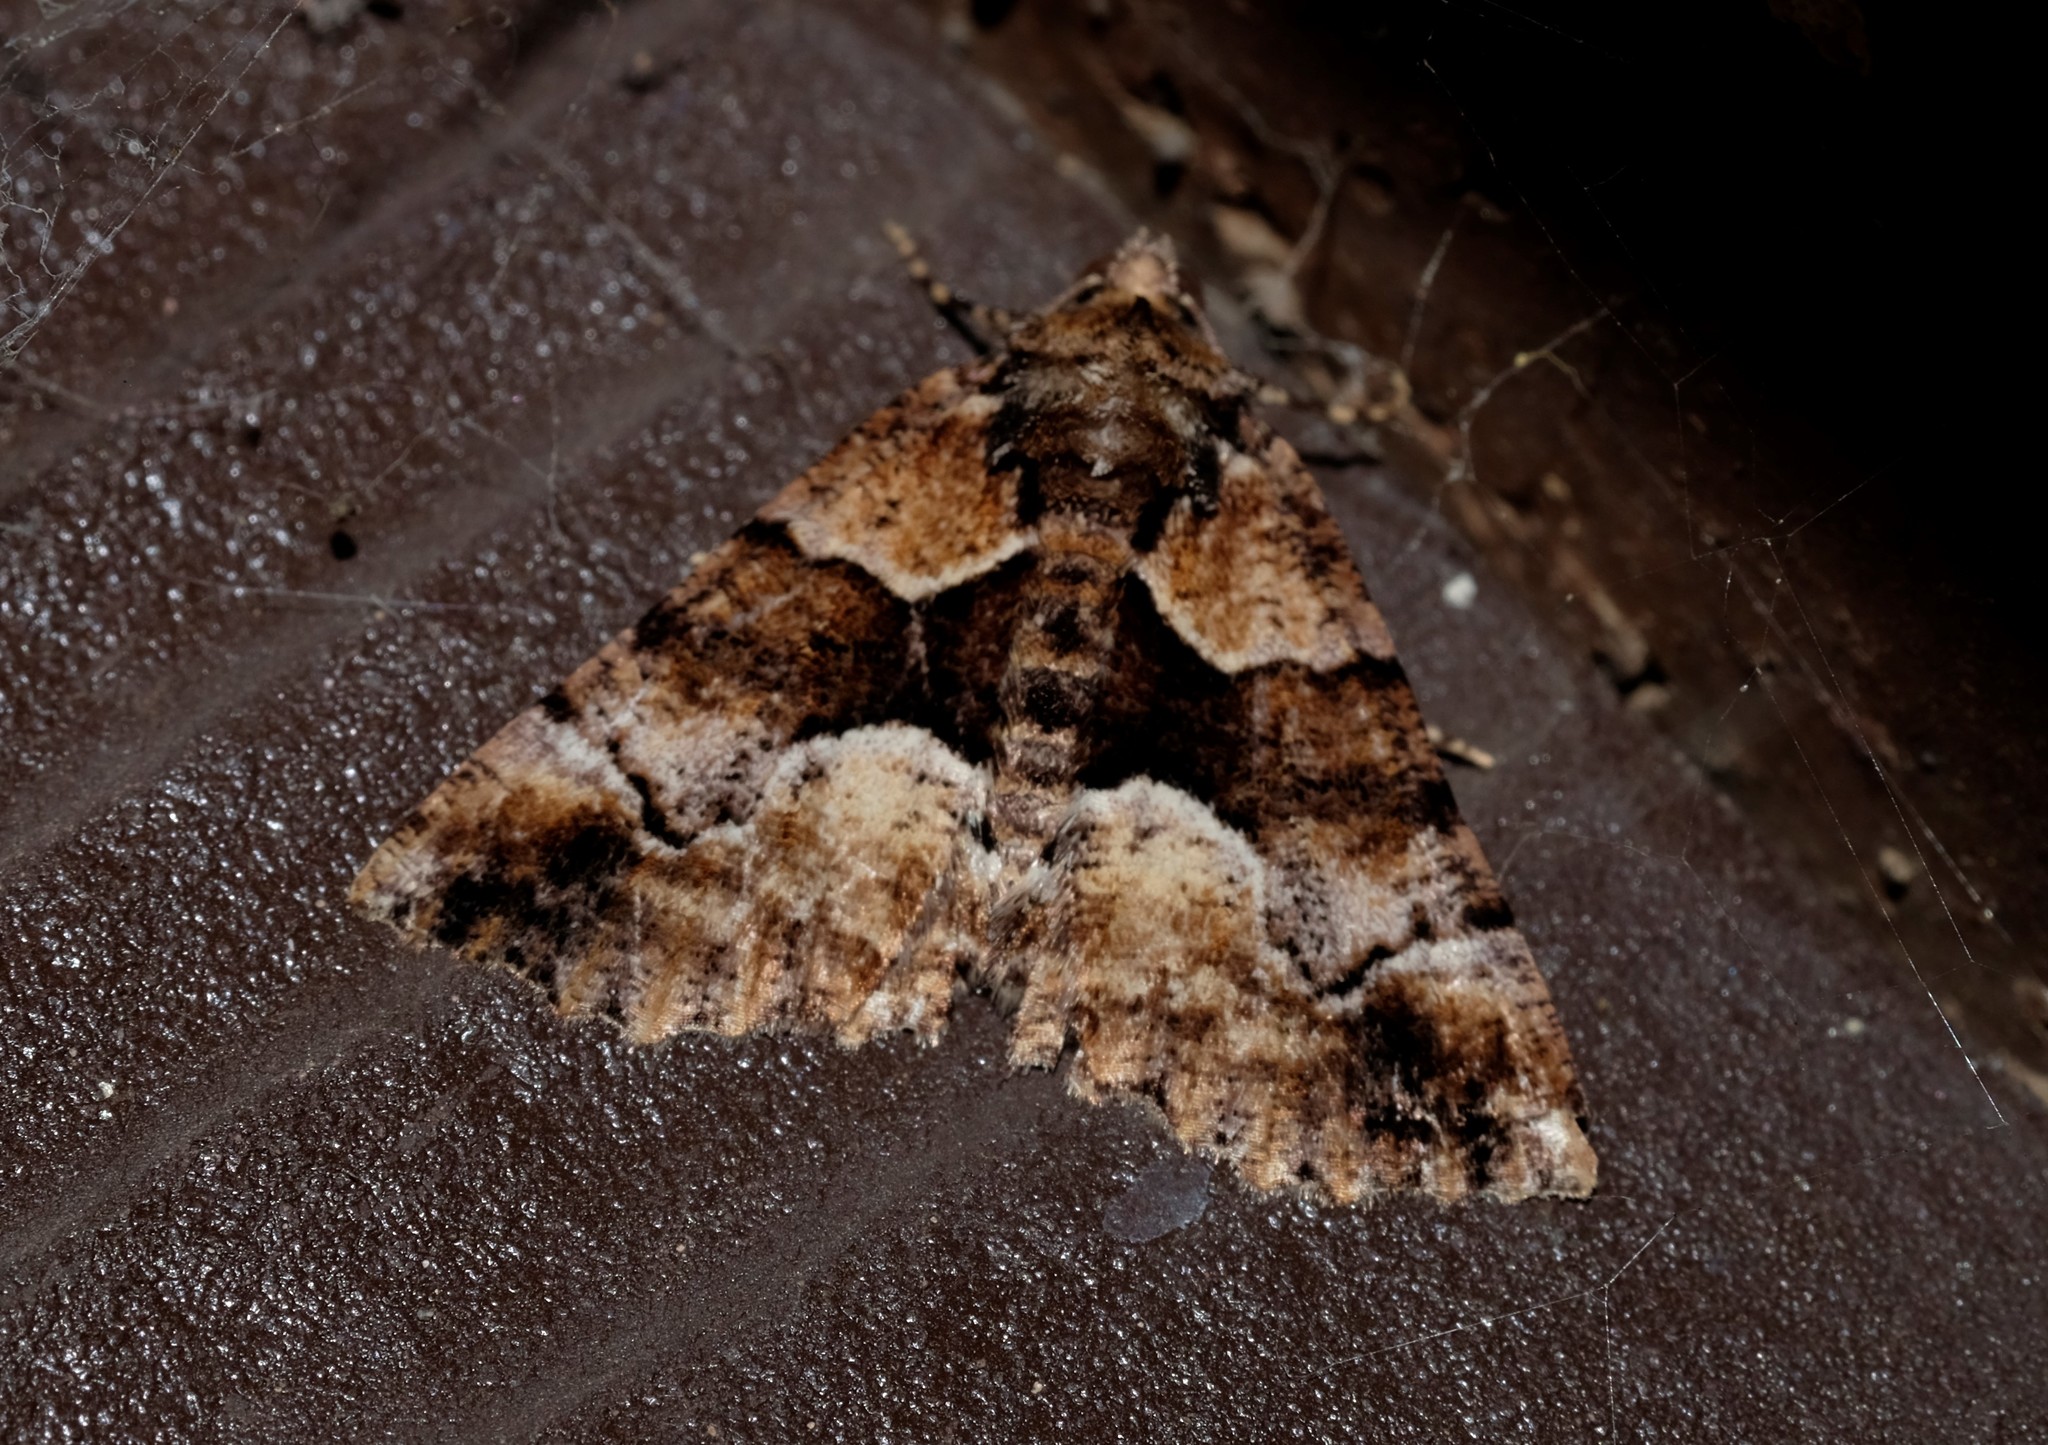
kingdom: Animalia
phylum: Arthropoda
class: Insecta
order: Lepidoptera
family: Geometridae
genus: Gastrina
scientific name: Gastrina cristaria
